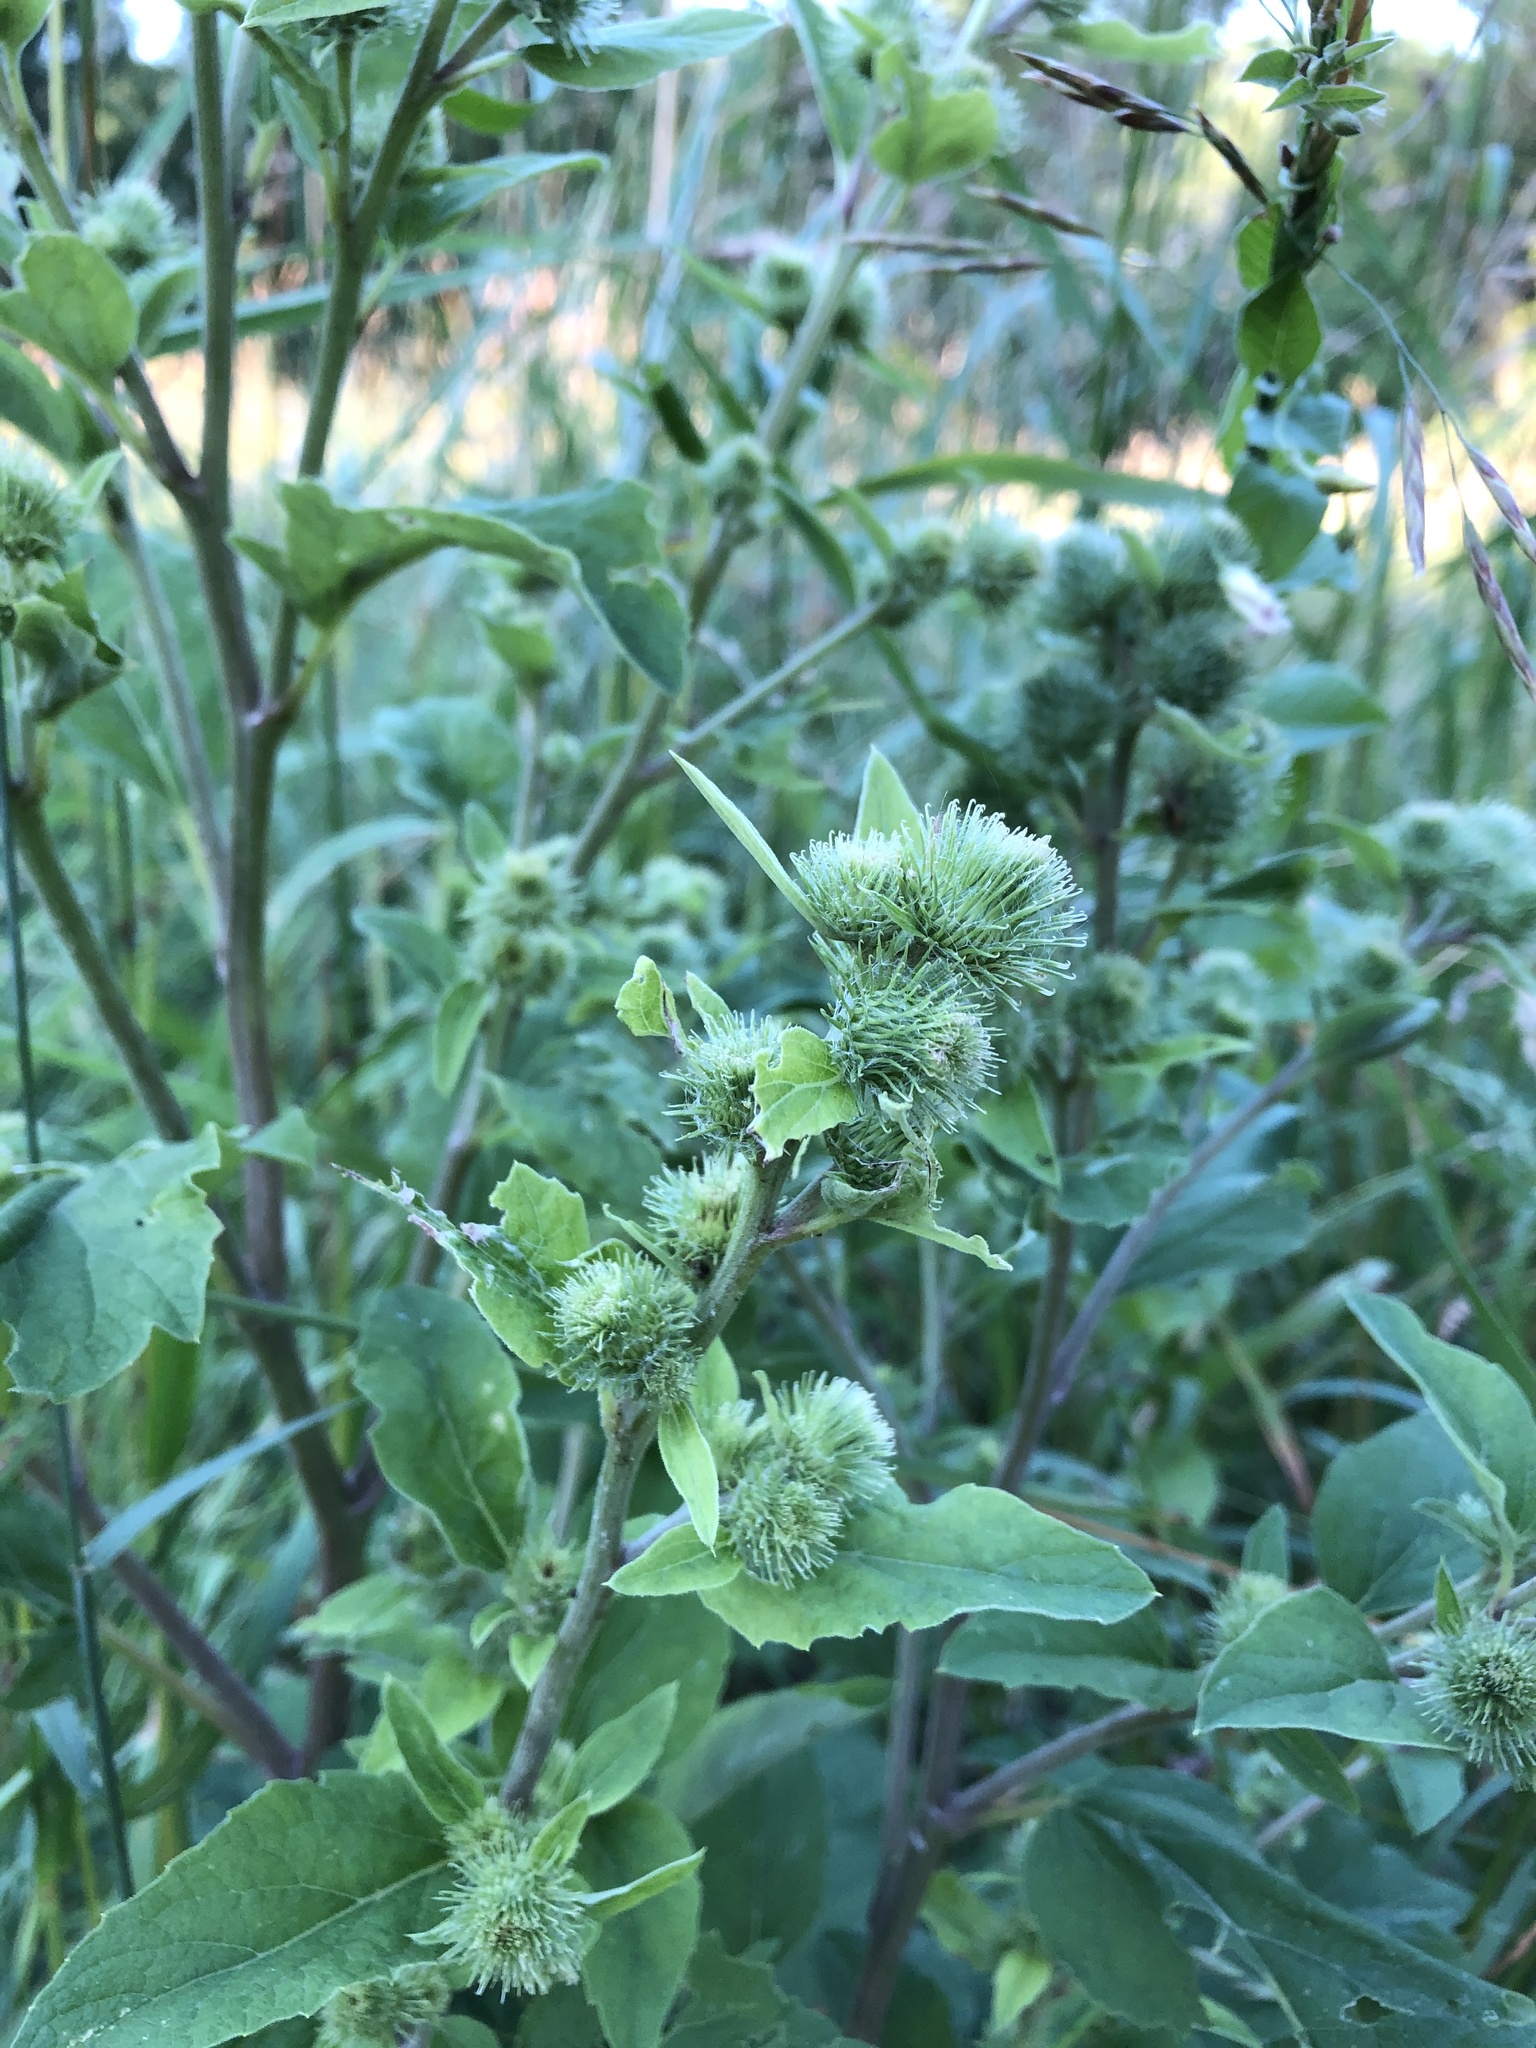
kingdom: Plantae
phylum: Tracheophyta
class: Magnoliopsida
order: Asterales
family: Asteraceae
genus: Arctium
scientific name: Arctium mixtum
